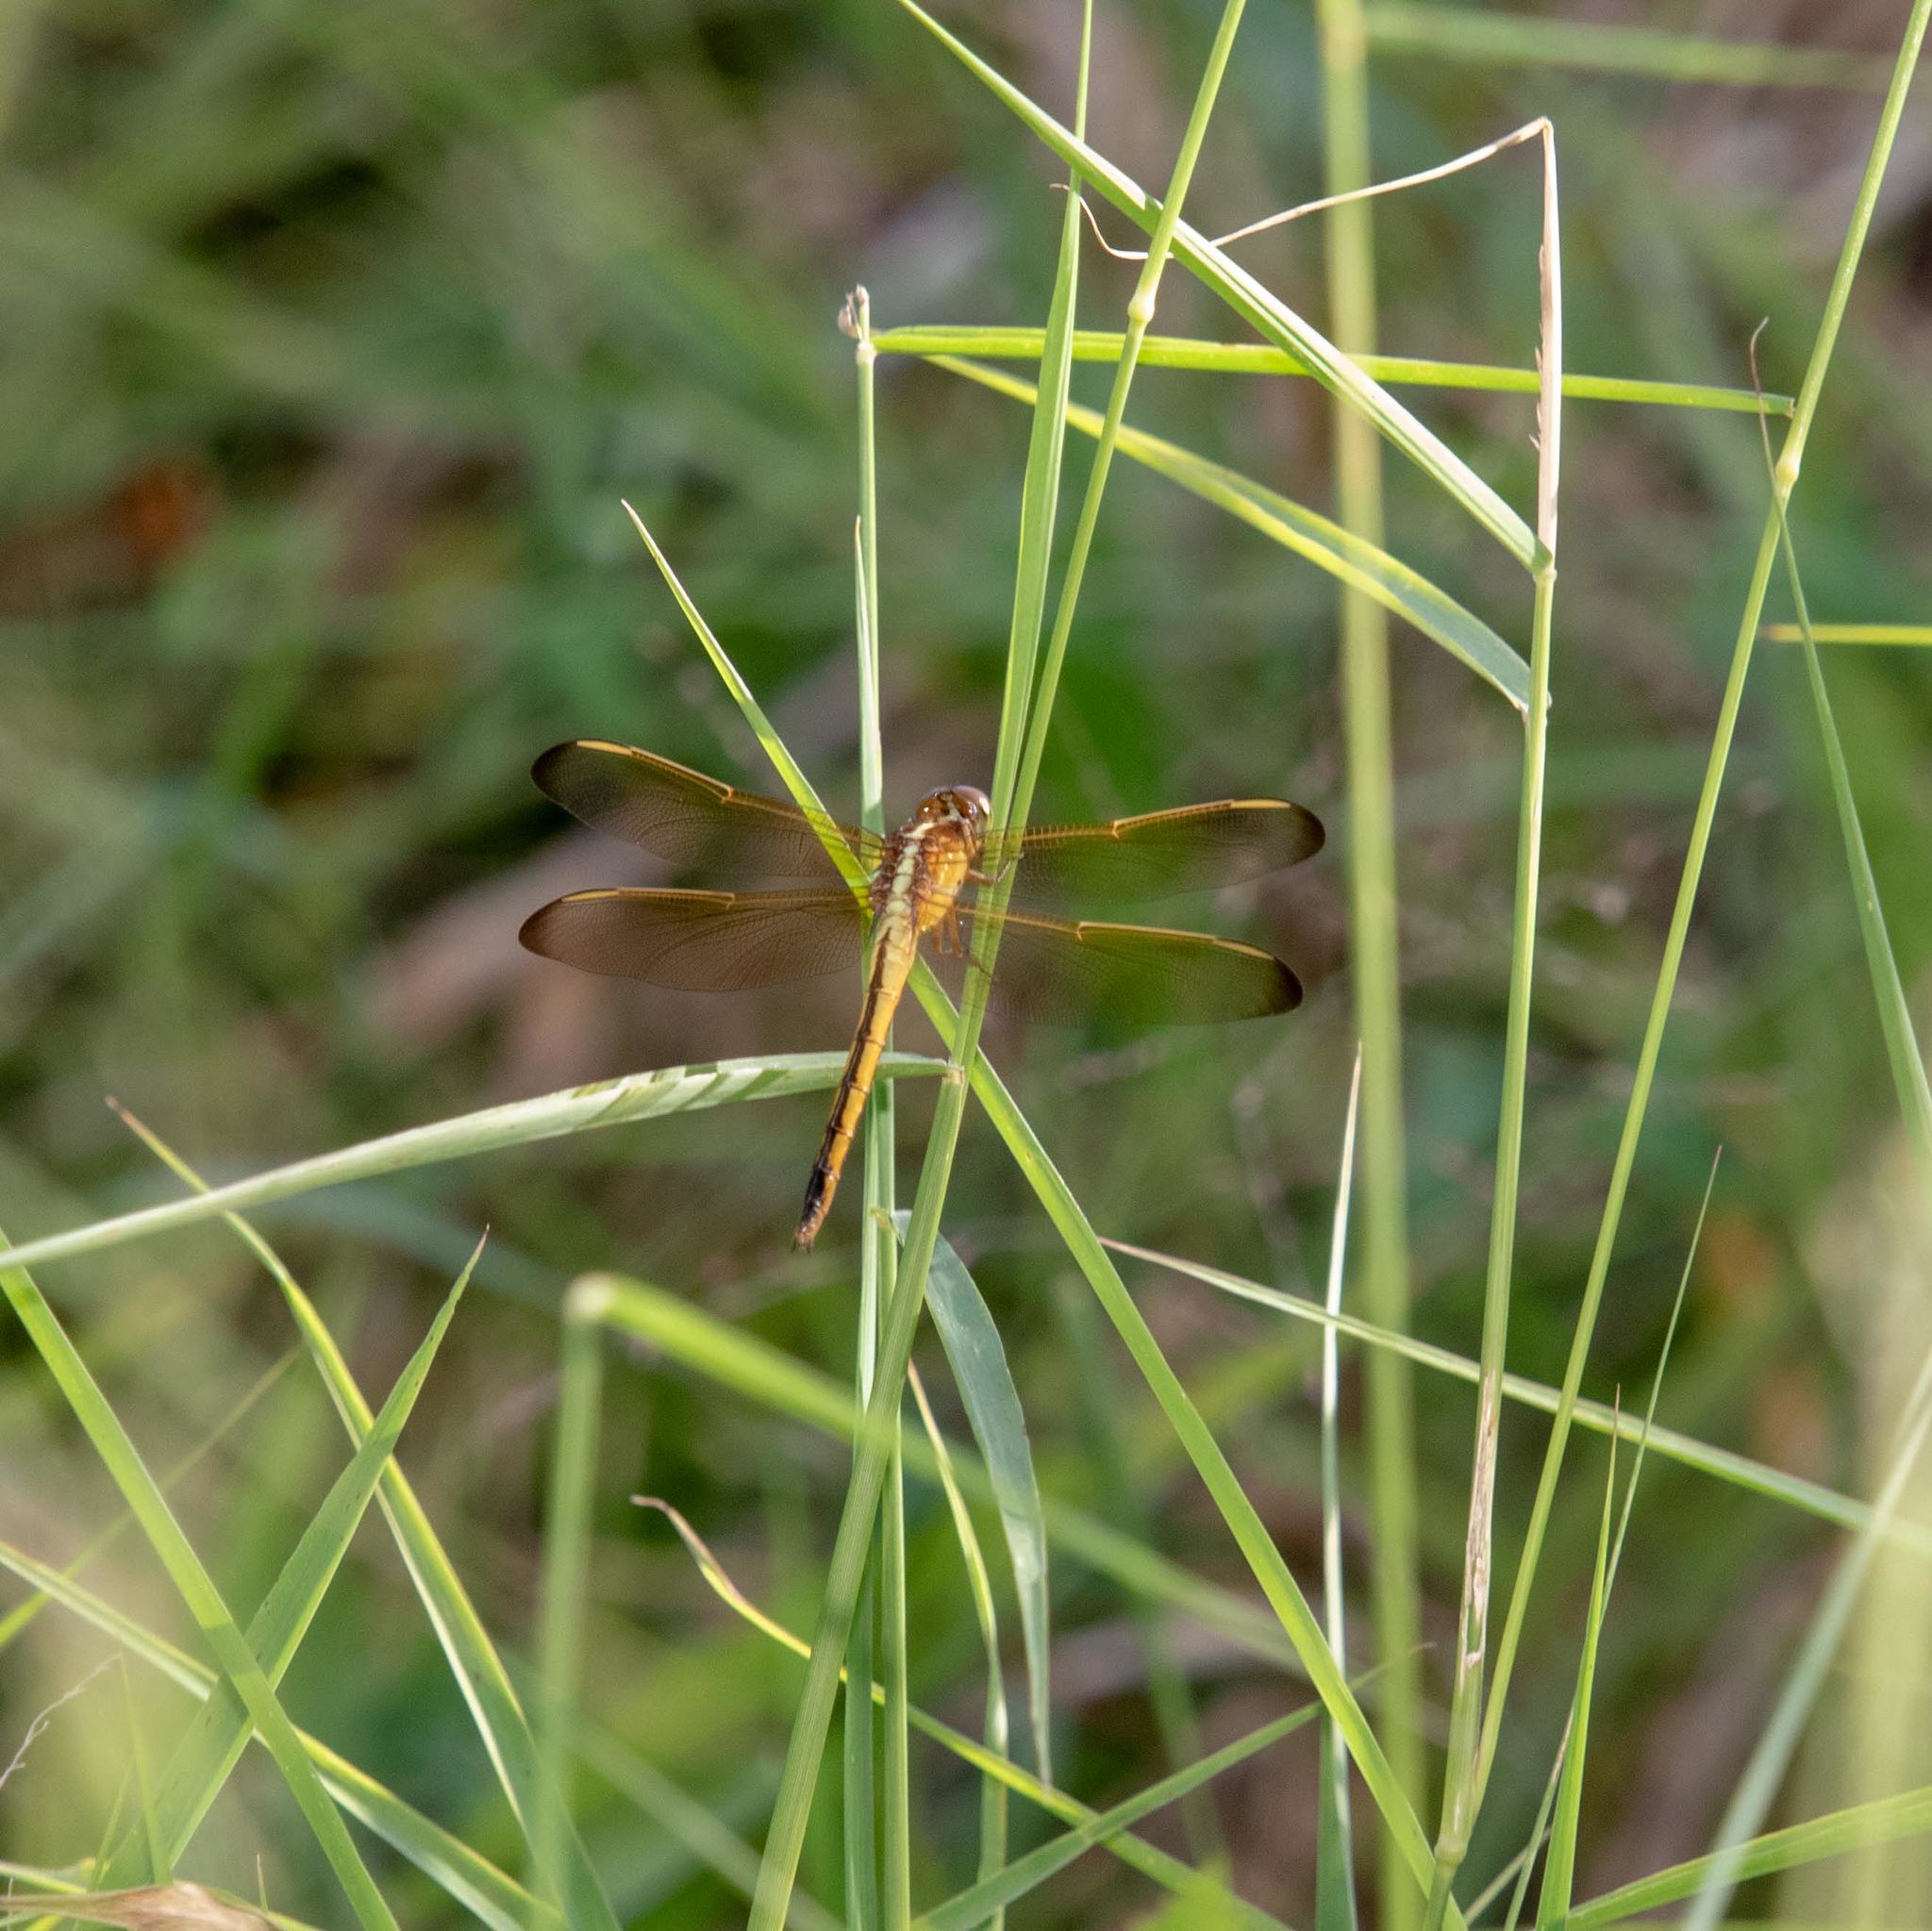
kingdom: Animalia
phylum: Arthropoda
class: Insecta
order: Odonata
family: Libellulidae
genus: Libellula
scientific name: Libellula needhami
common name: Needham's skimmer
